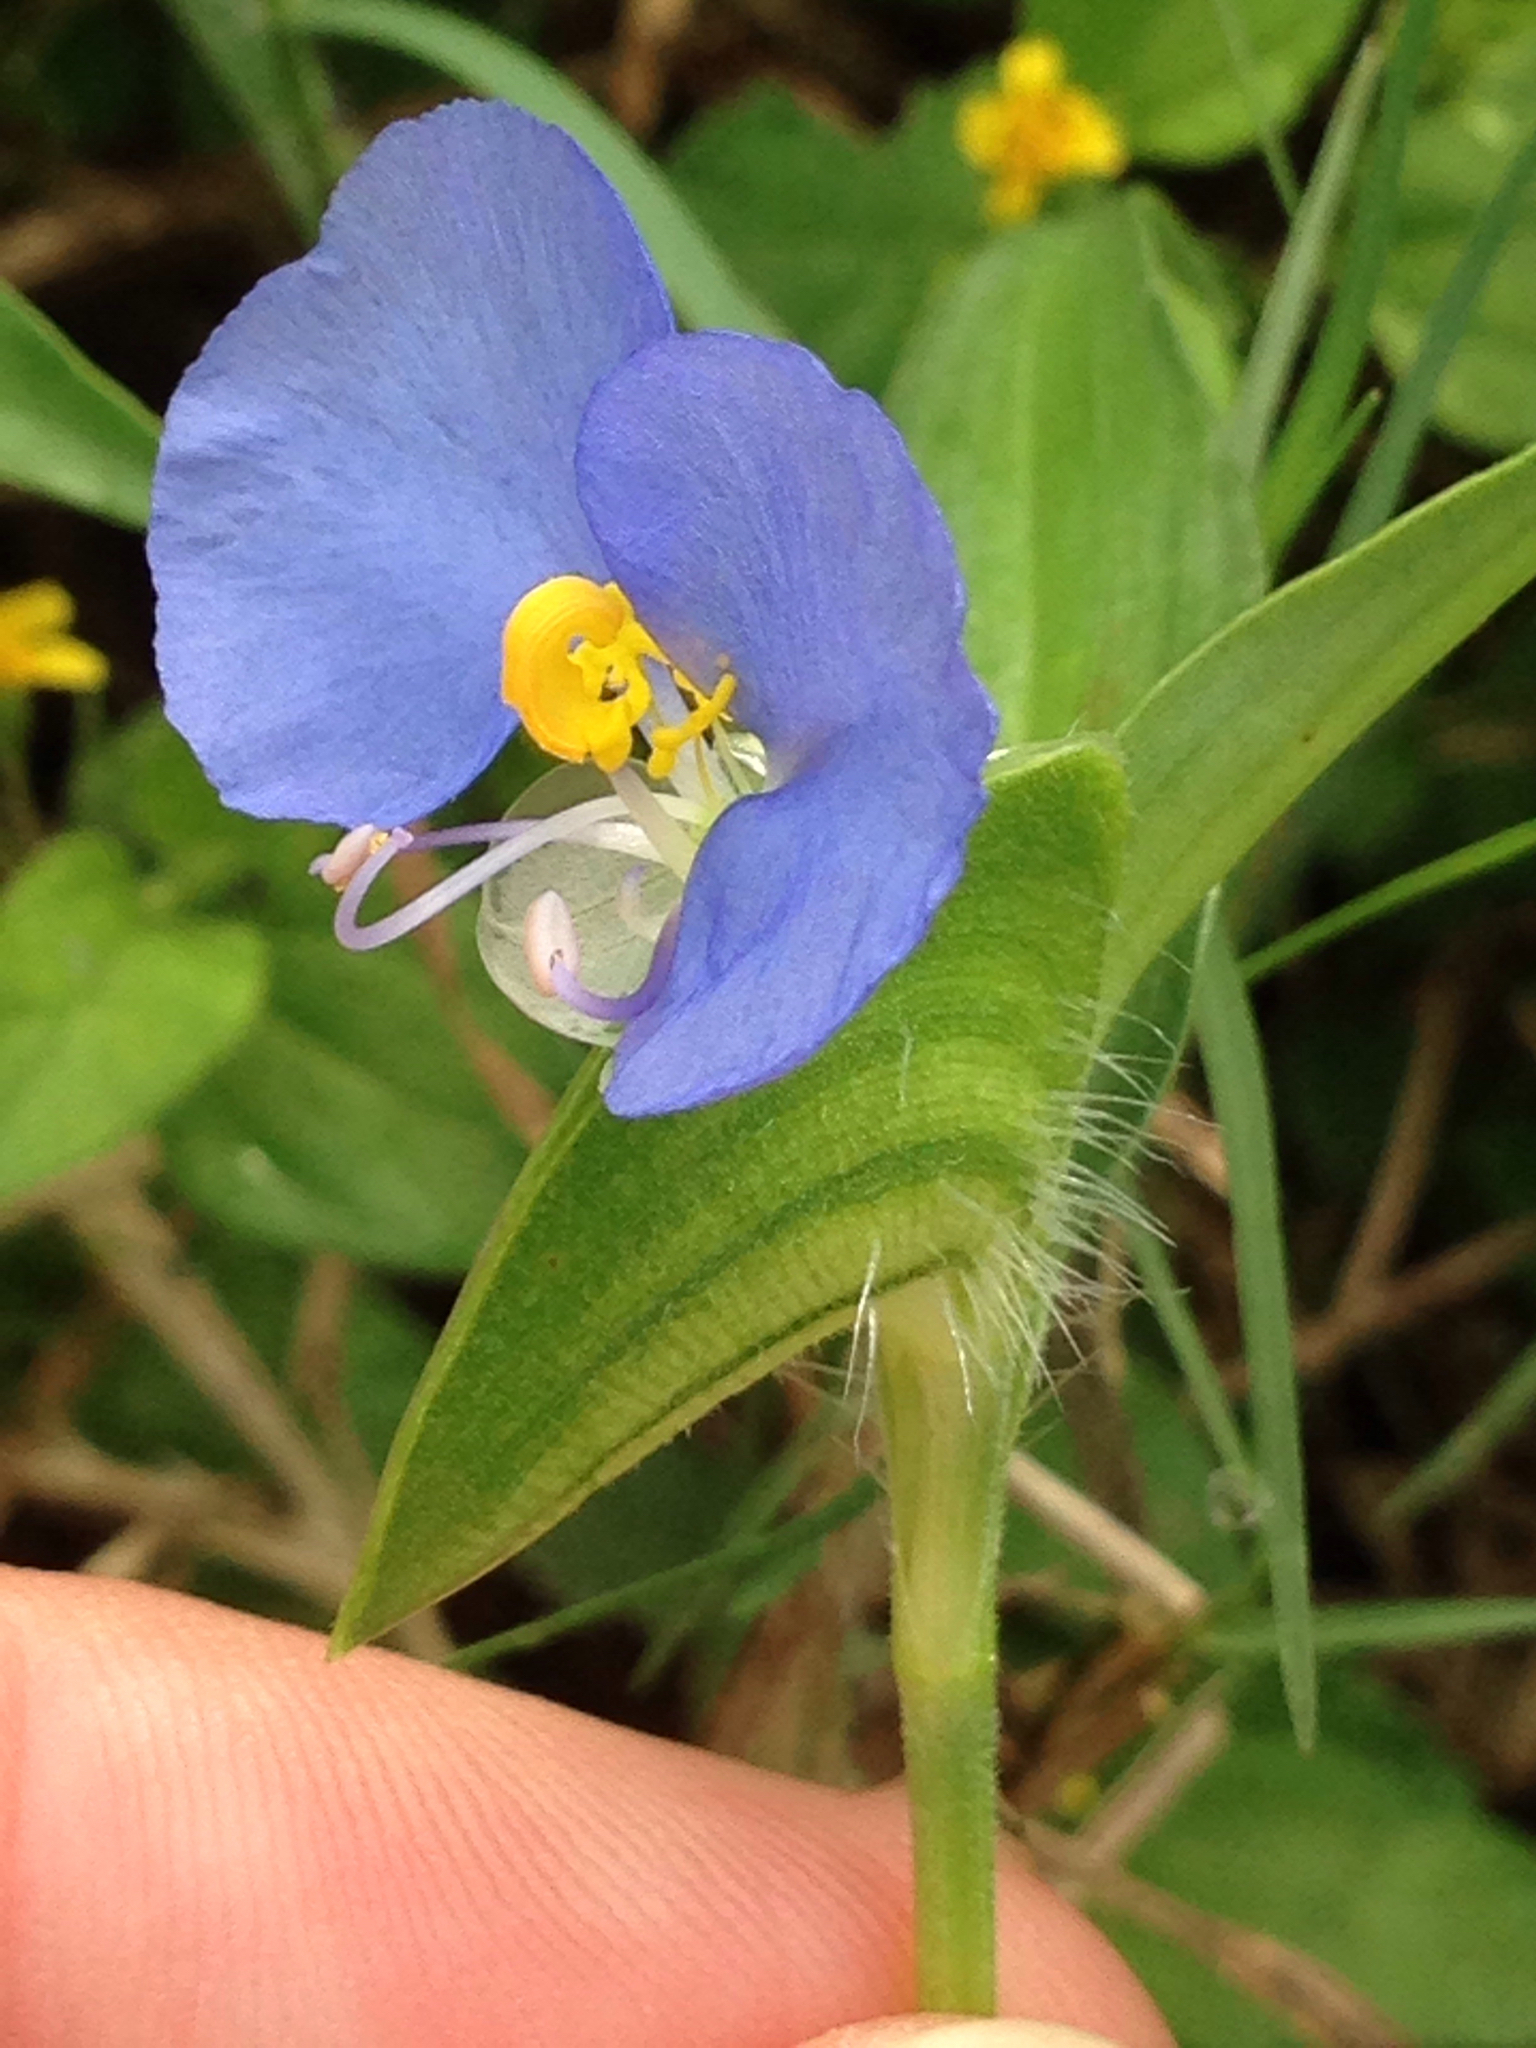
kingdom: Plantae
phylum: Tracheophyta
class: Liliopsida
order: Commelinales
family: Commelinaceae
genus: Commelina
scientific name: Commelina erecta
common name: Blousel blommetjie
